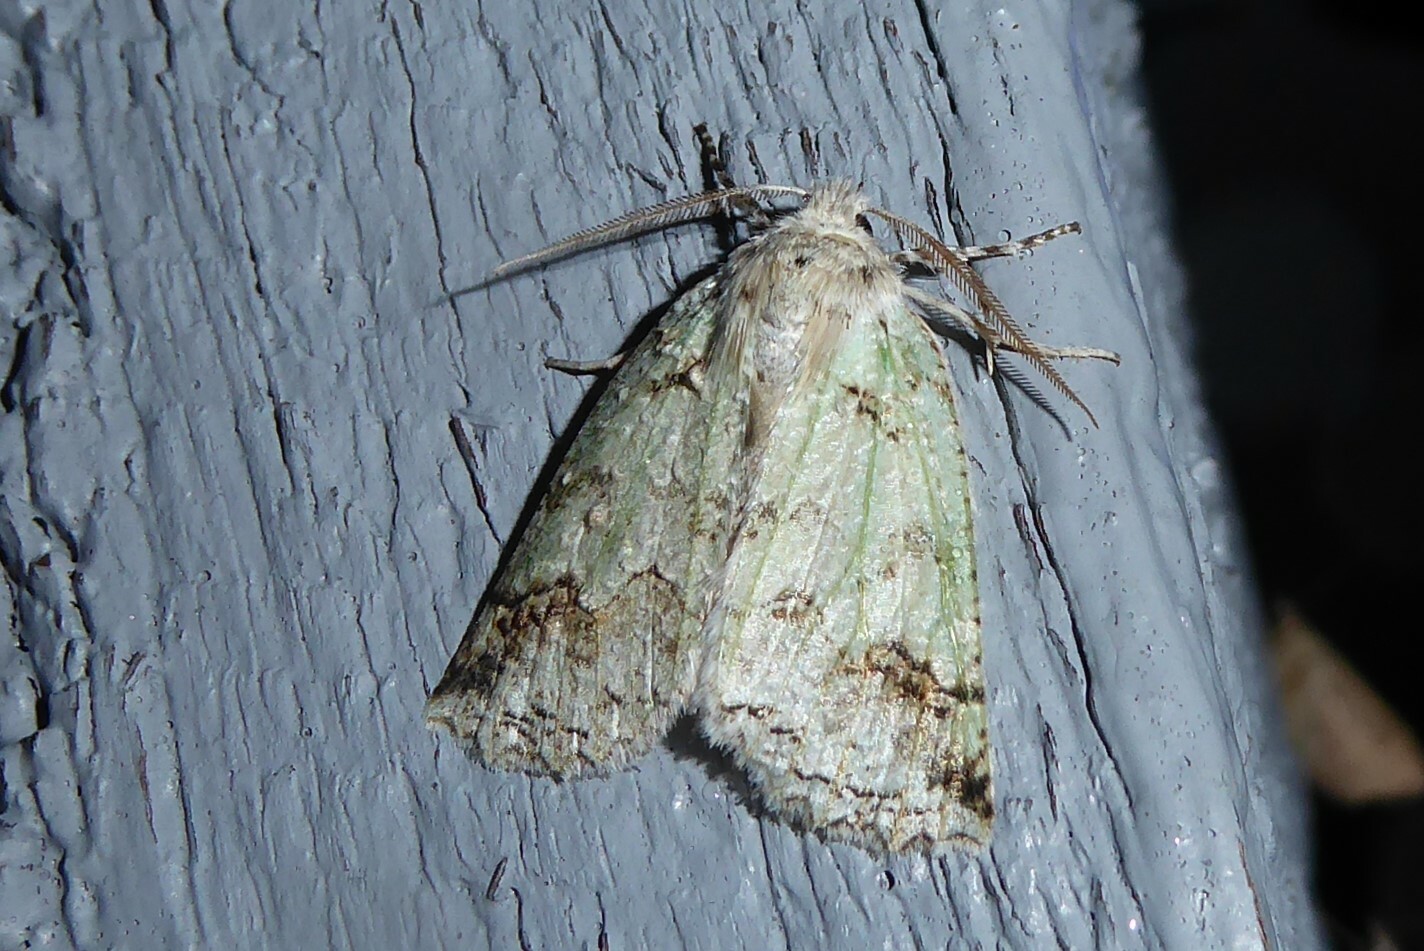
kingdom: Animalia
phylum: Arthropoda
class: Insecta
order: Lepidoptera
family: Geometridae
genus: Declana
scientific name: Declana floccosa
